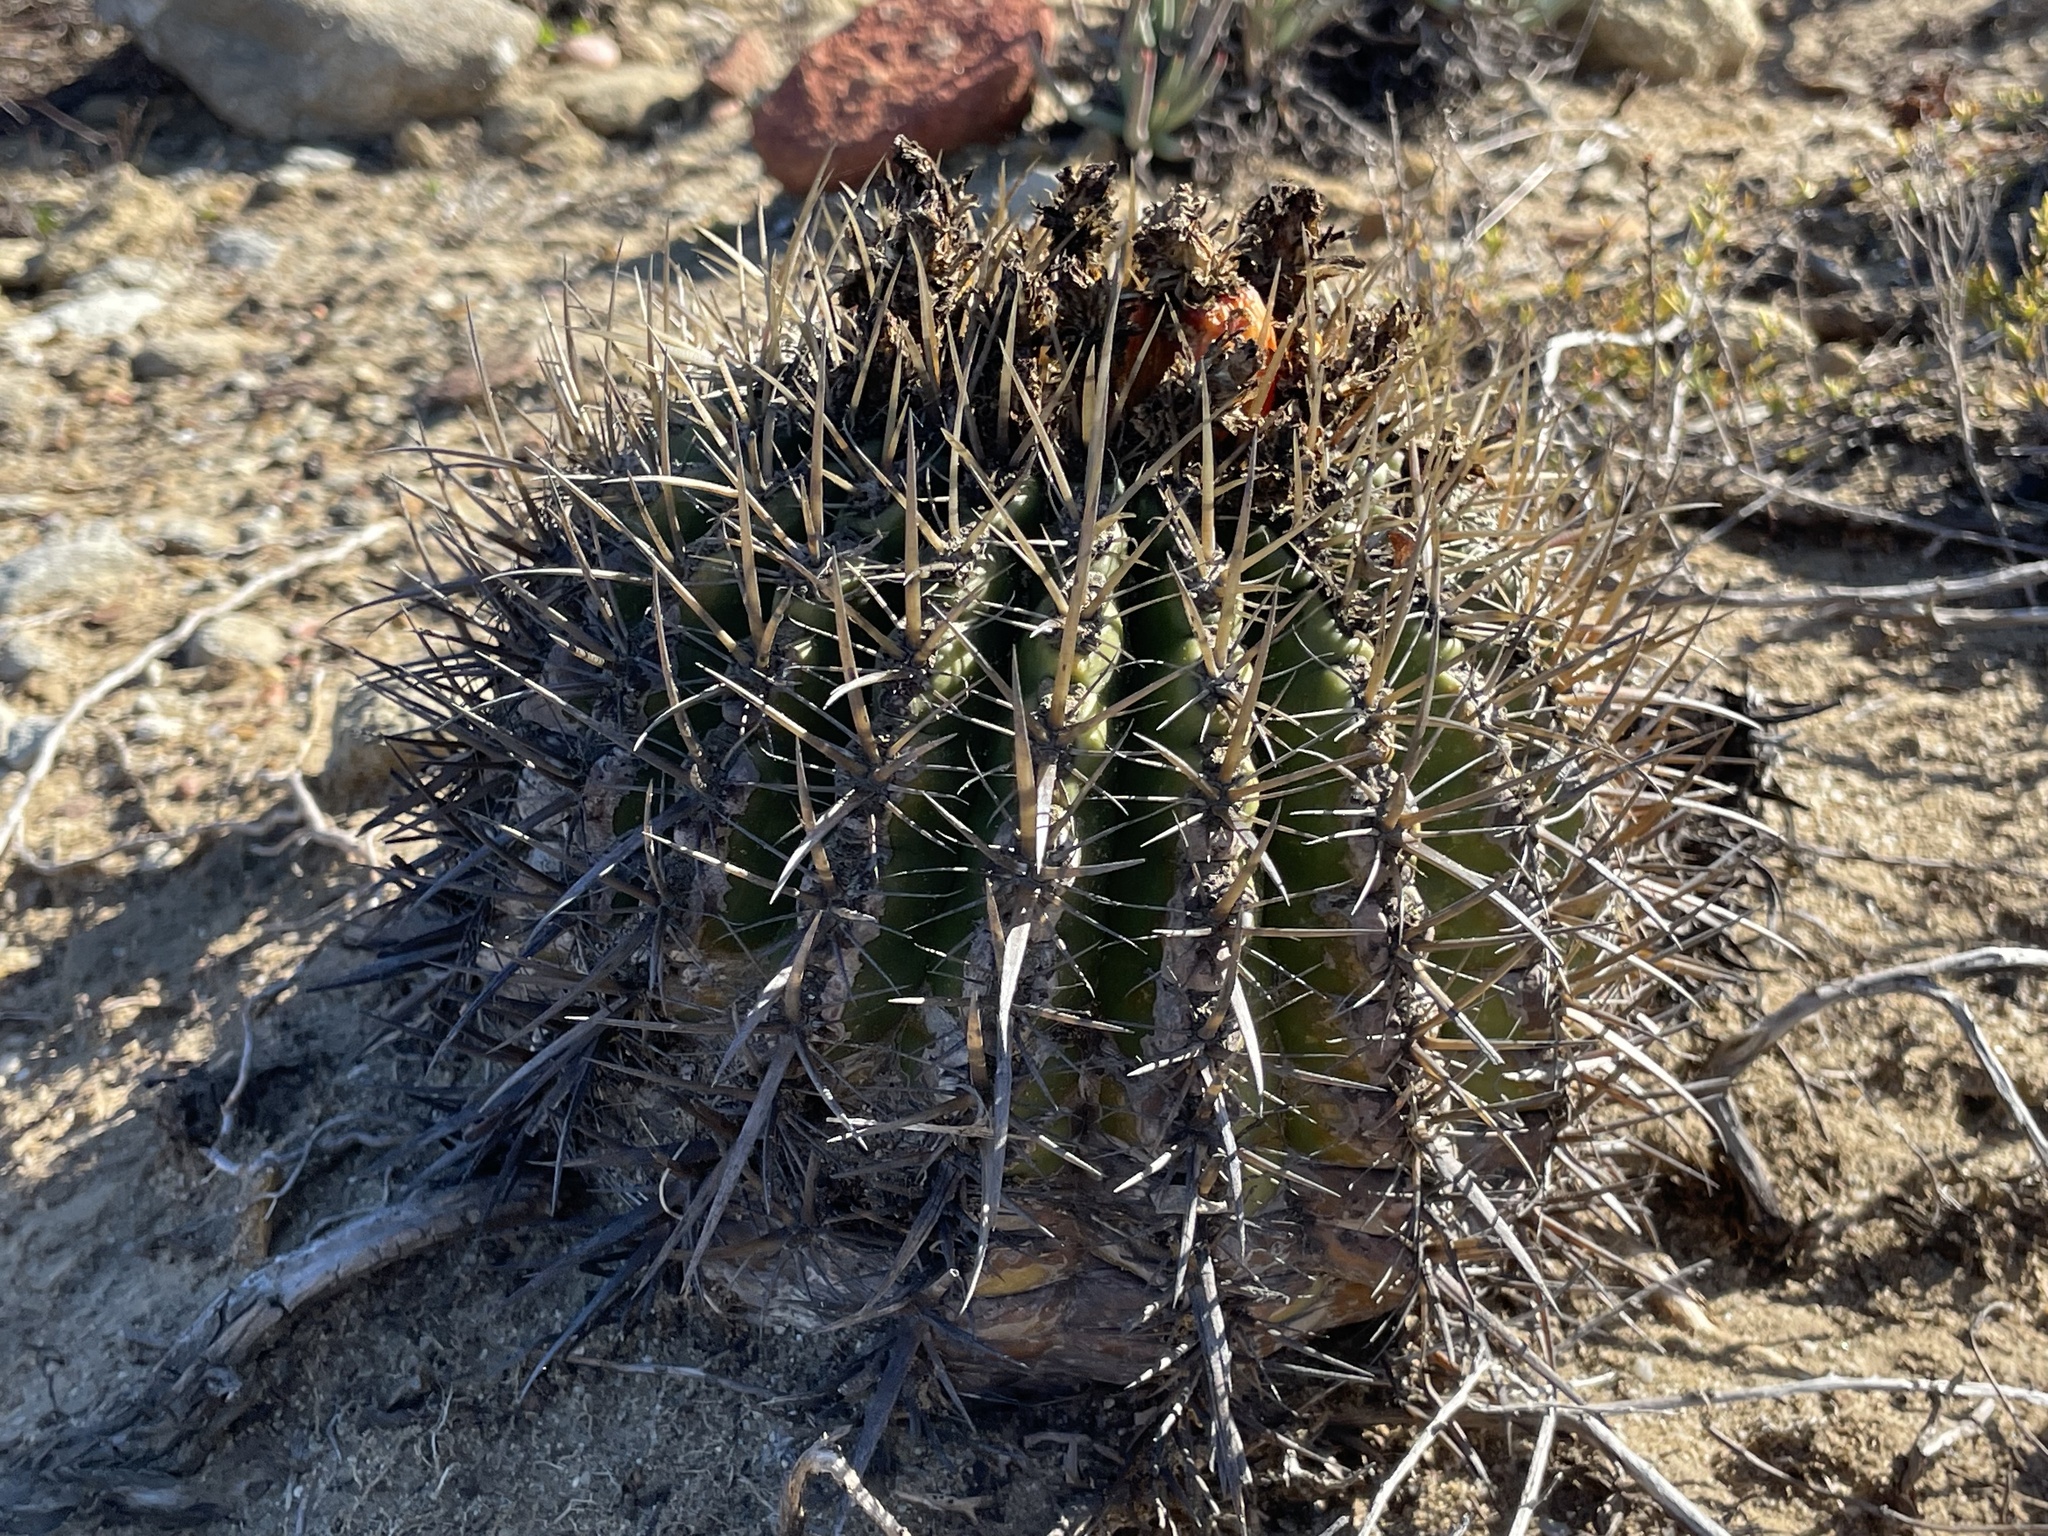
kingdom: Plantae
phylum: Tracheophyta
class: Magnoliopsida
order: Caryophyllales
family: Cactaceae
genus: Ferocactus
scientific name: Ferocactus viridescens
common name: San diego barrel cactus
